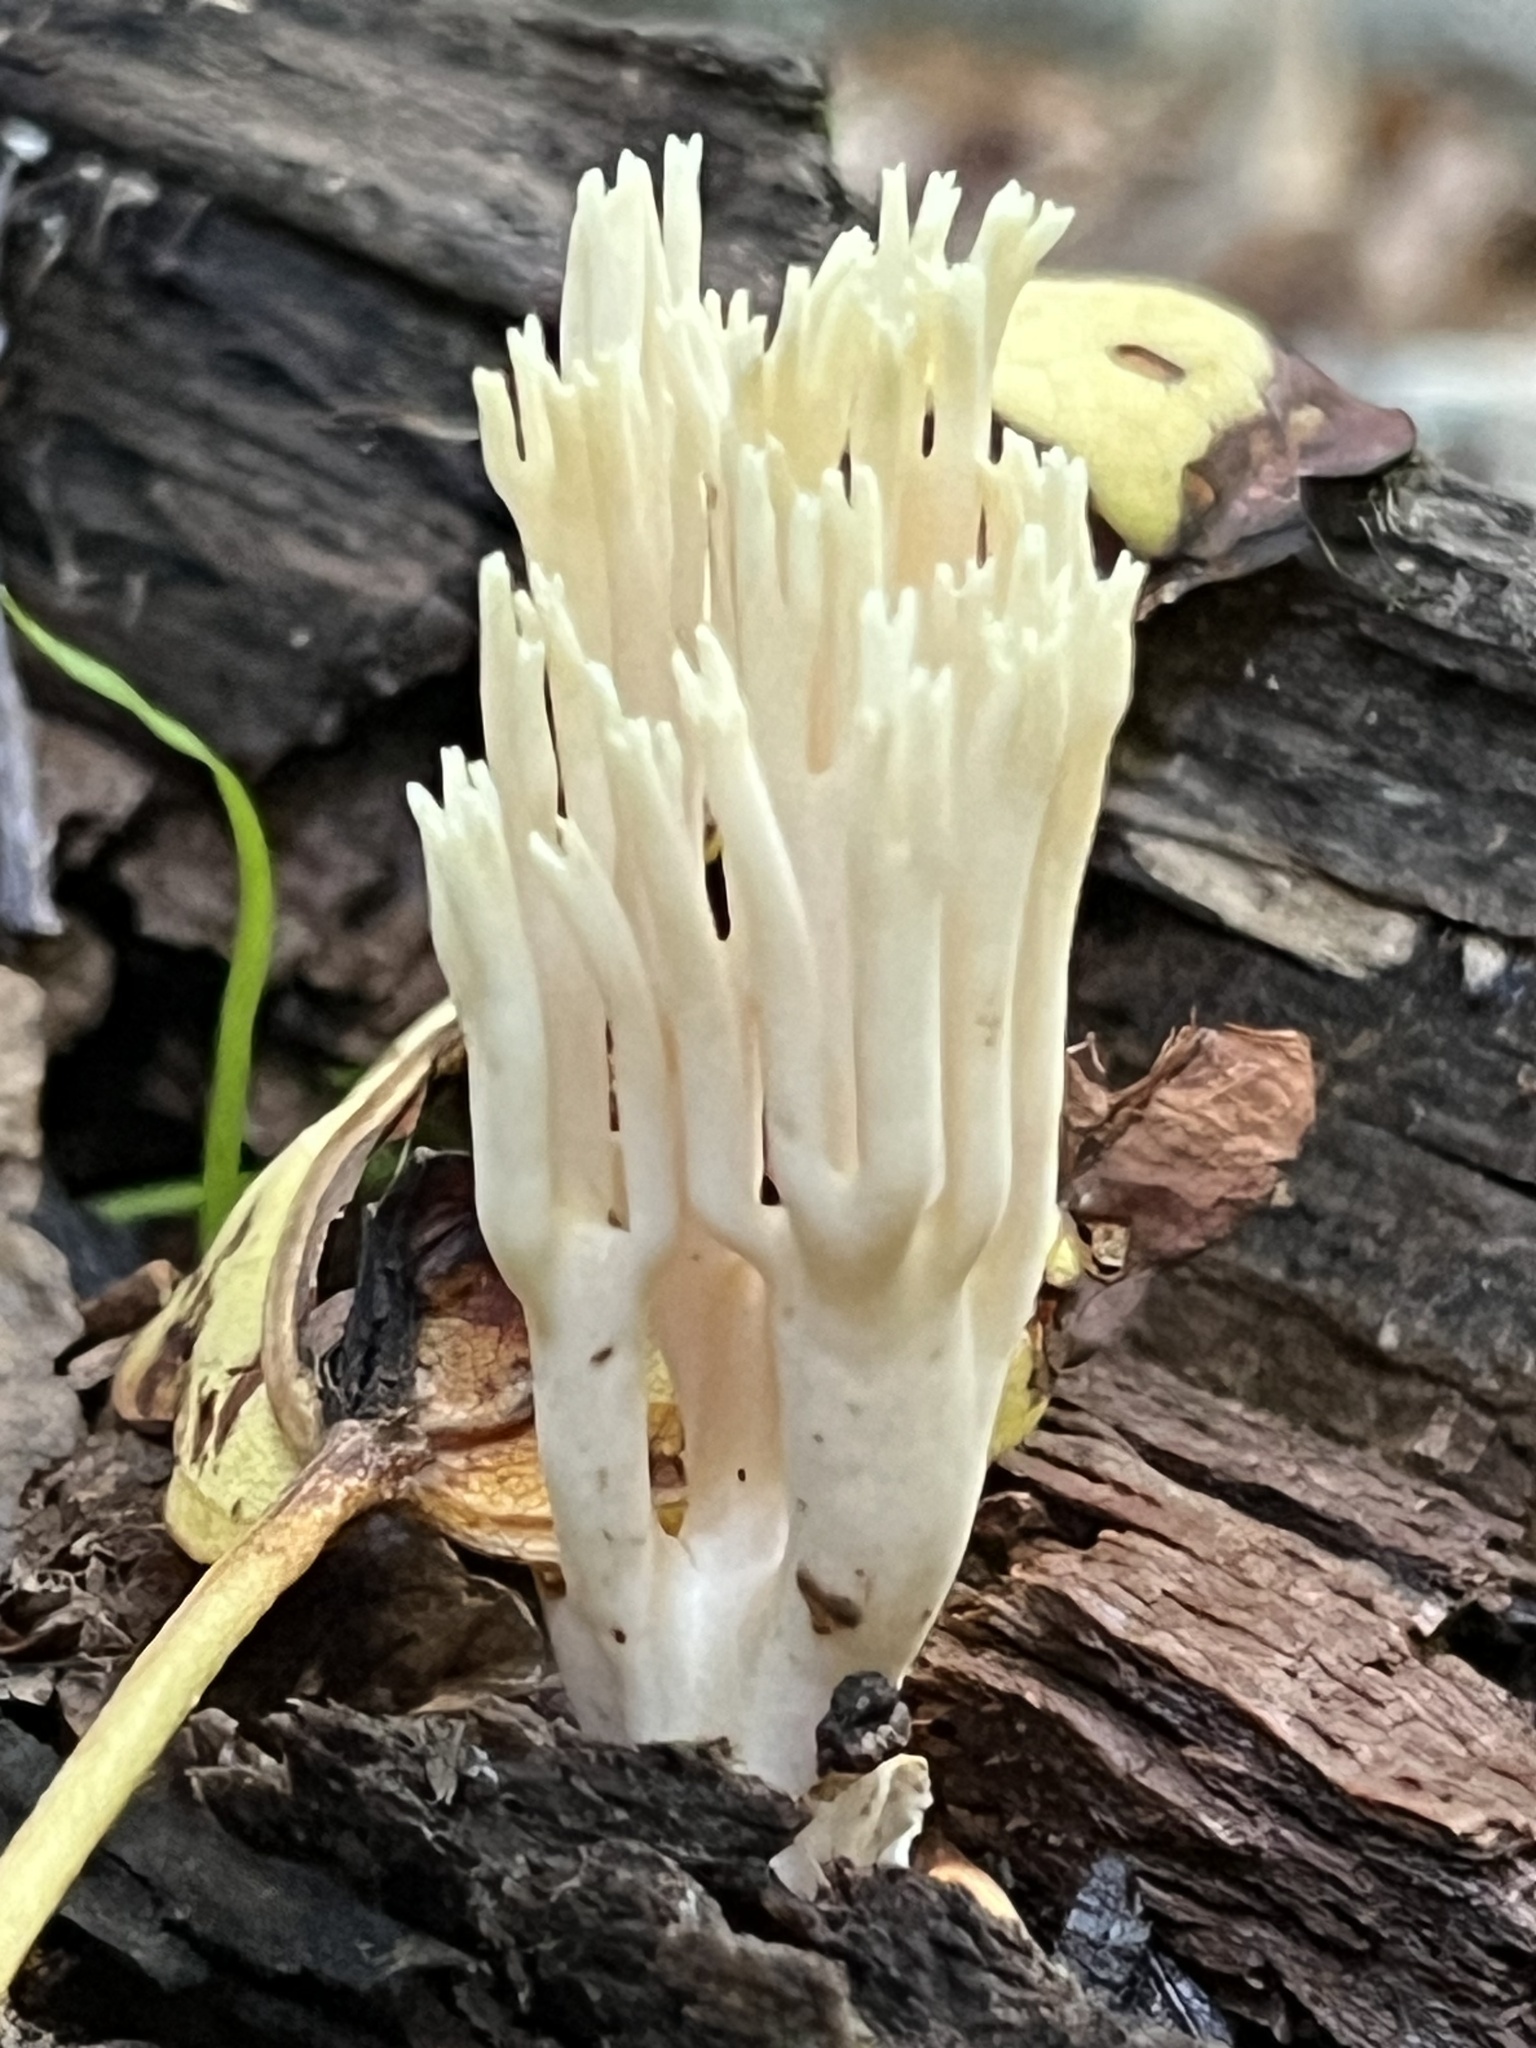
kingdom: Fungi
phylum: Basidiomycota
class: Agaricomycetes
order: Gomphales
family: Gomphaceae
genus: Ramaria
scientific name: Ramaria stricta
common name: Upright coral
